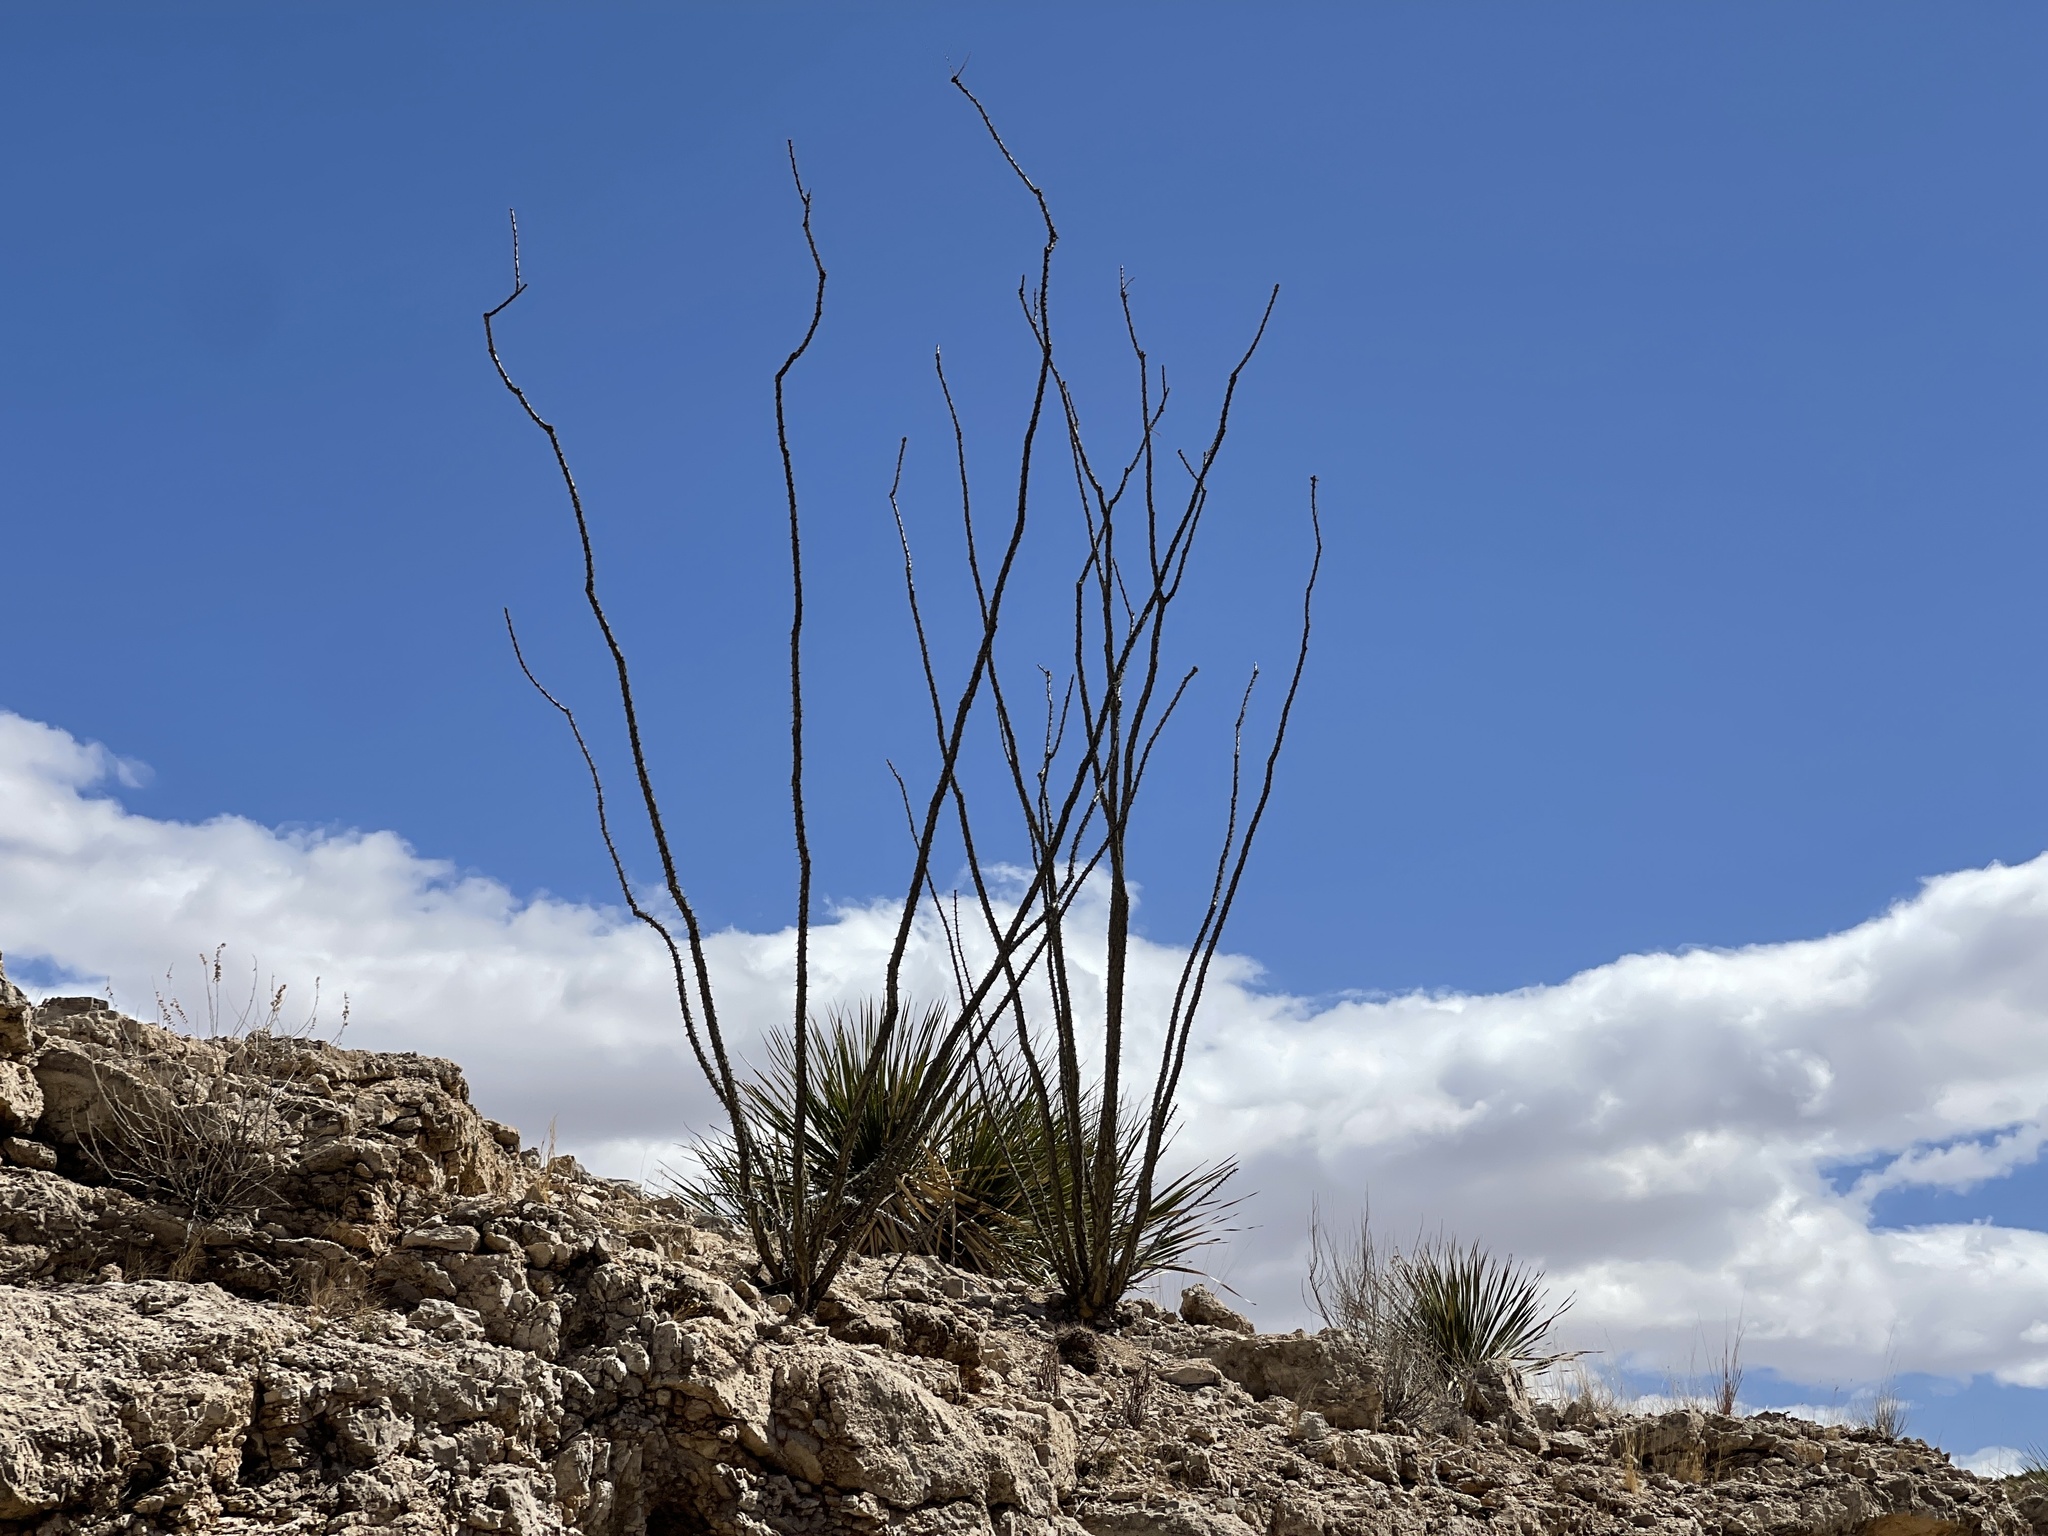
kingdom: Plantae
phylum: Tracheophyta
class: Magnoliopsida
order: Ericales
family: Fouquieriaceae
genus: Fouquieria
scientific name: Fouquieria splendens
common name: Vine-cactus
